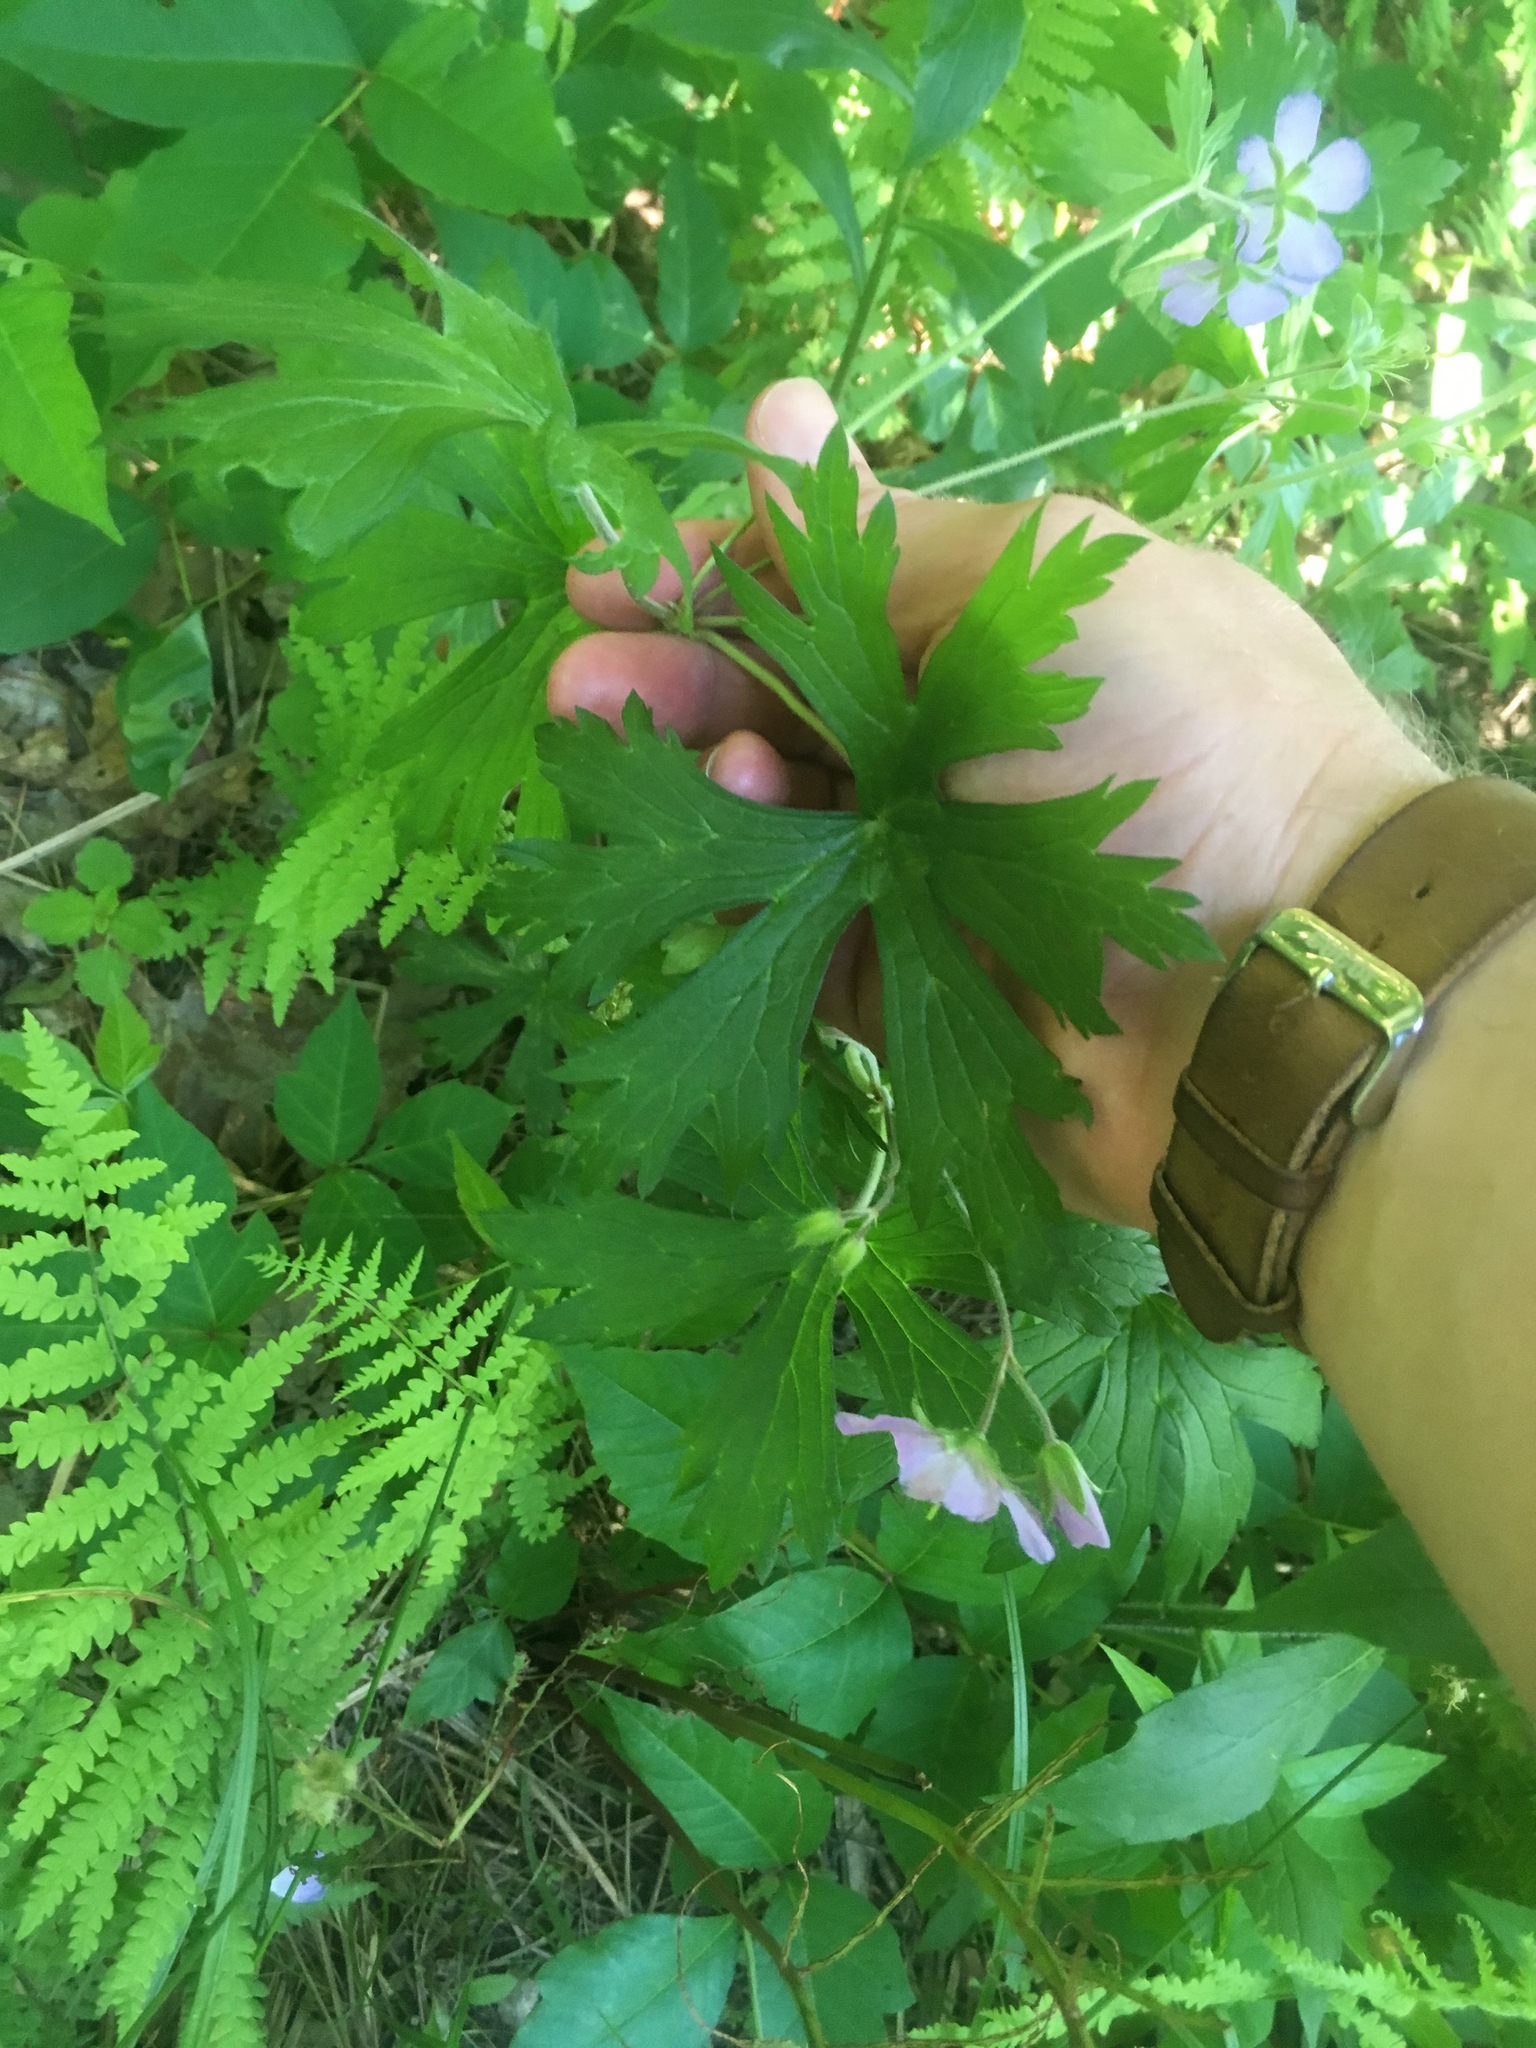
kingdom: Plantae
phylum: Tracheophyta
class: Magnoliopsida
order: Geraniales
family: Geraniaceae
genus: Geranium
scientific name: Geranium maculatum
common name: Spotted geranium
